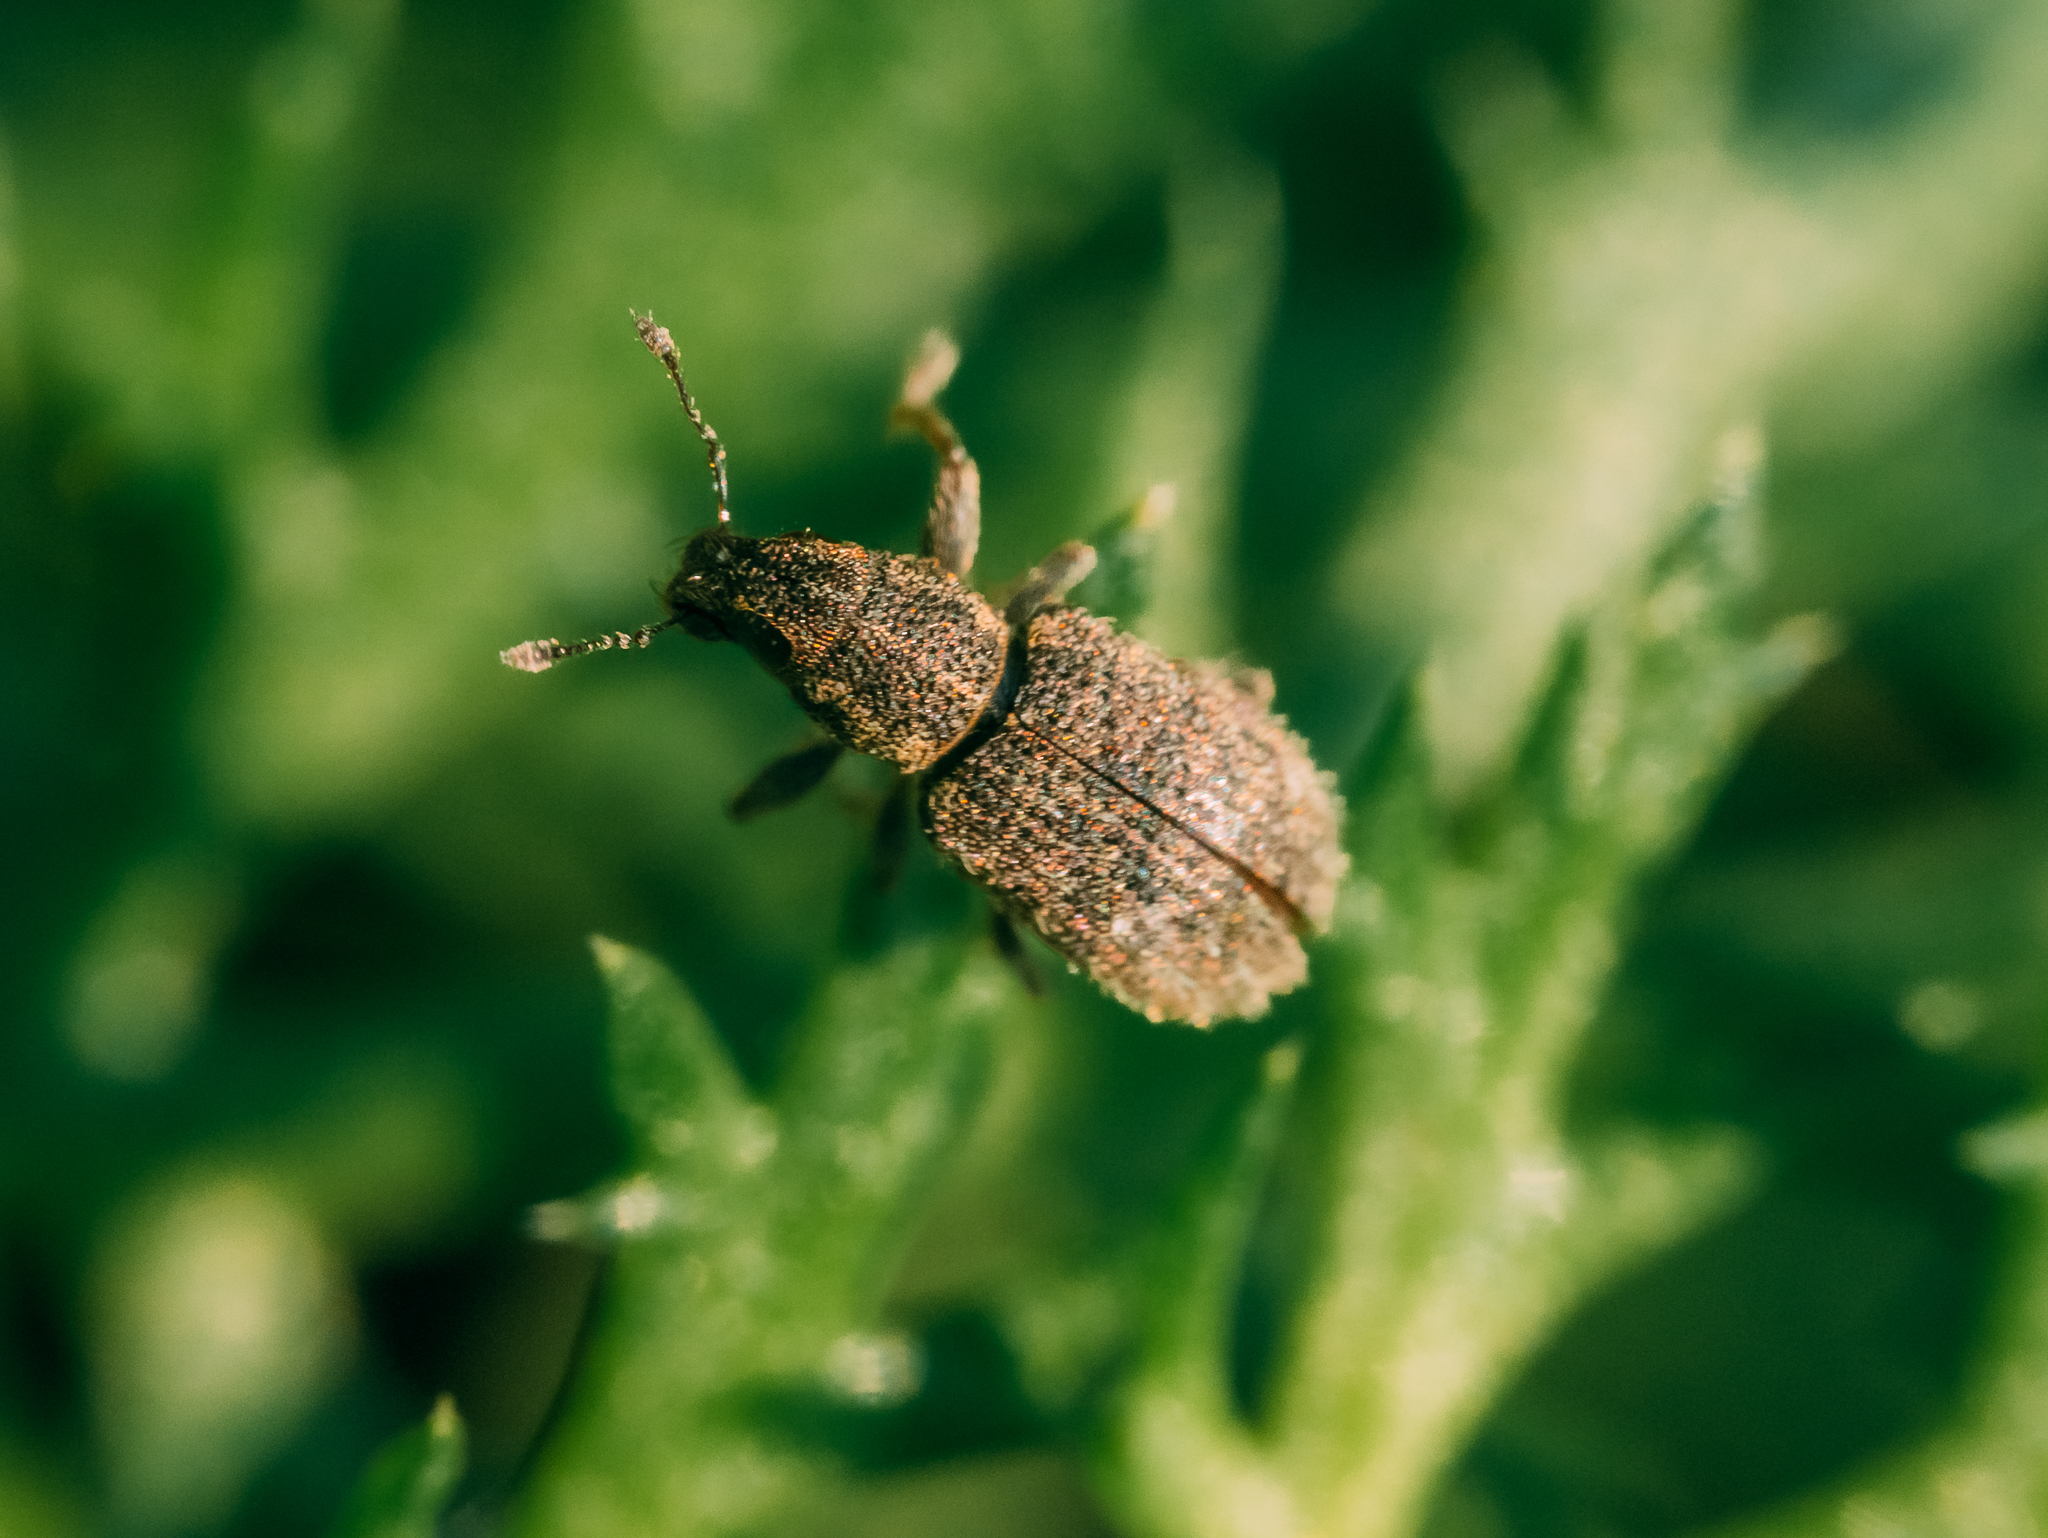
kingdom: Animalia
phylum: Arthropoda
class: Insecta
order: Coleoptera
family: Curculionidae
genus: Sitona
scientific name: Sitona hispidulus
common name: Clover weevil
